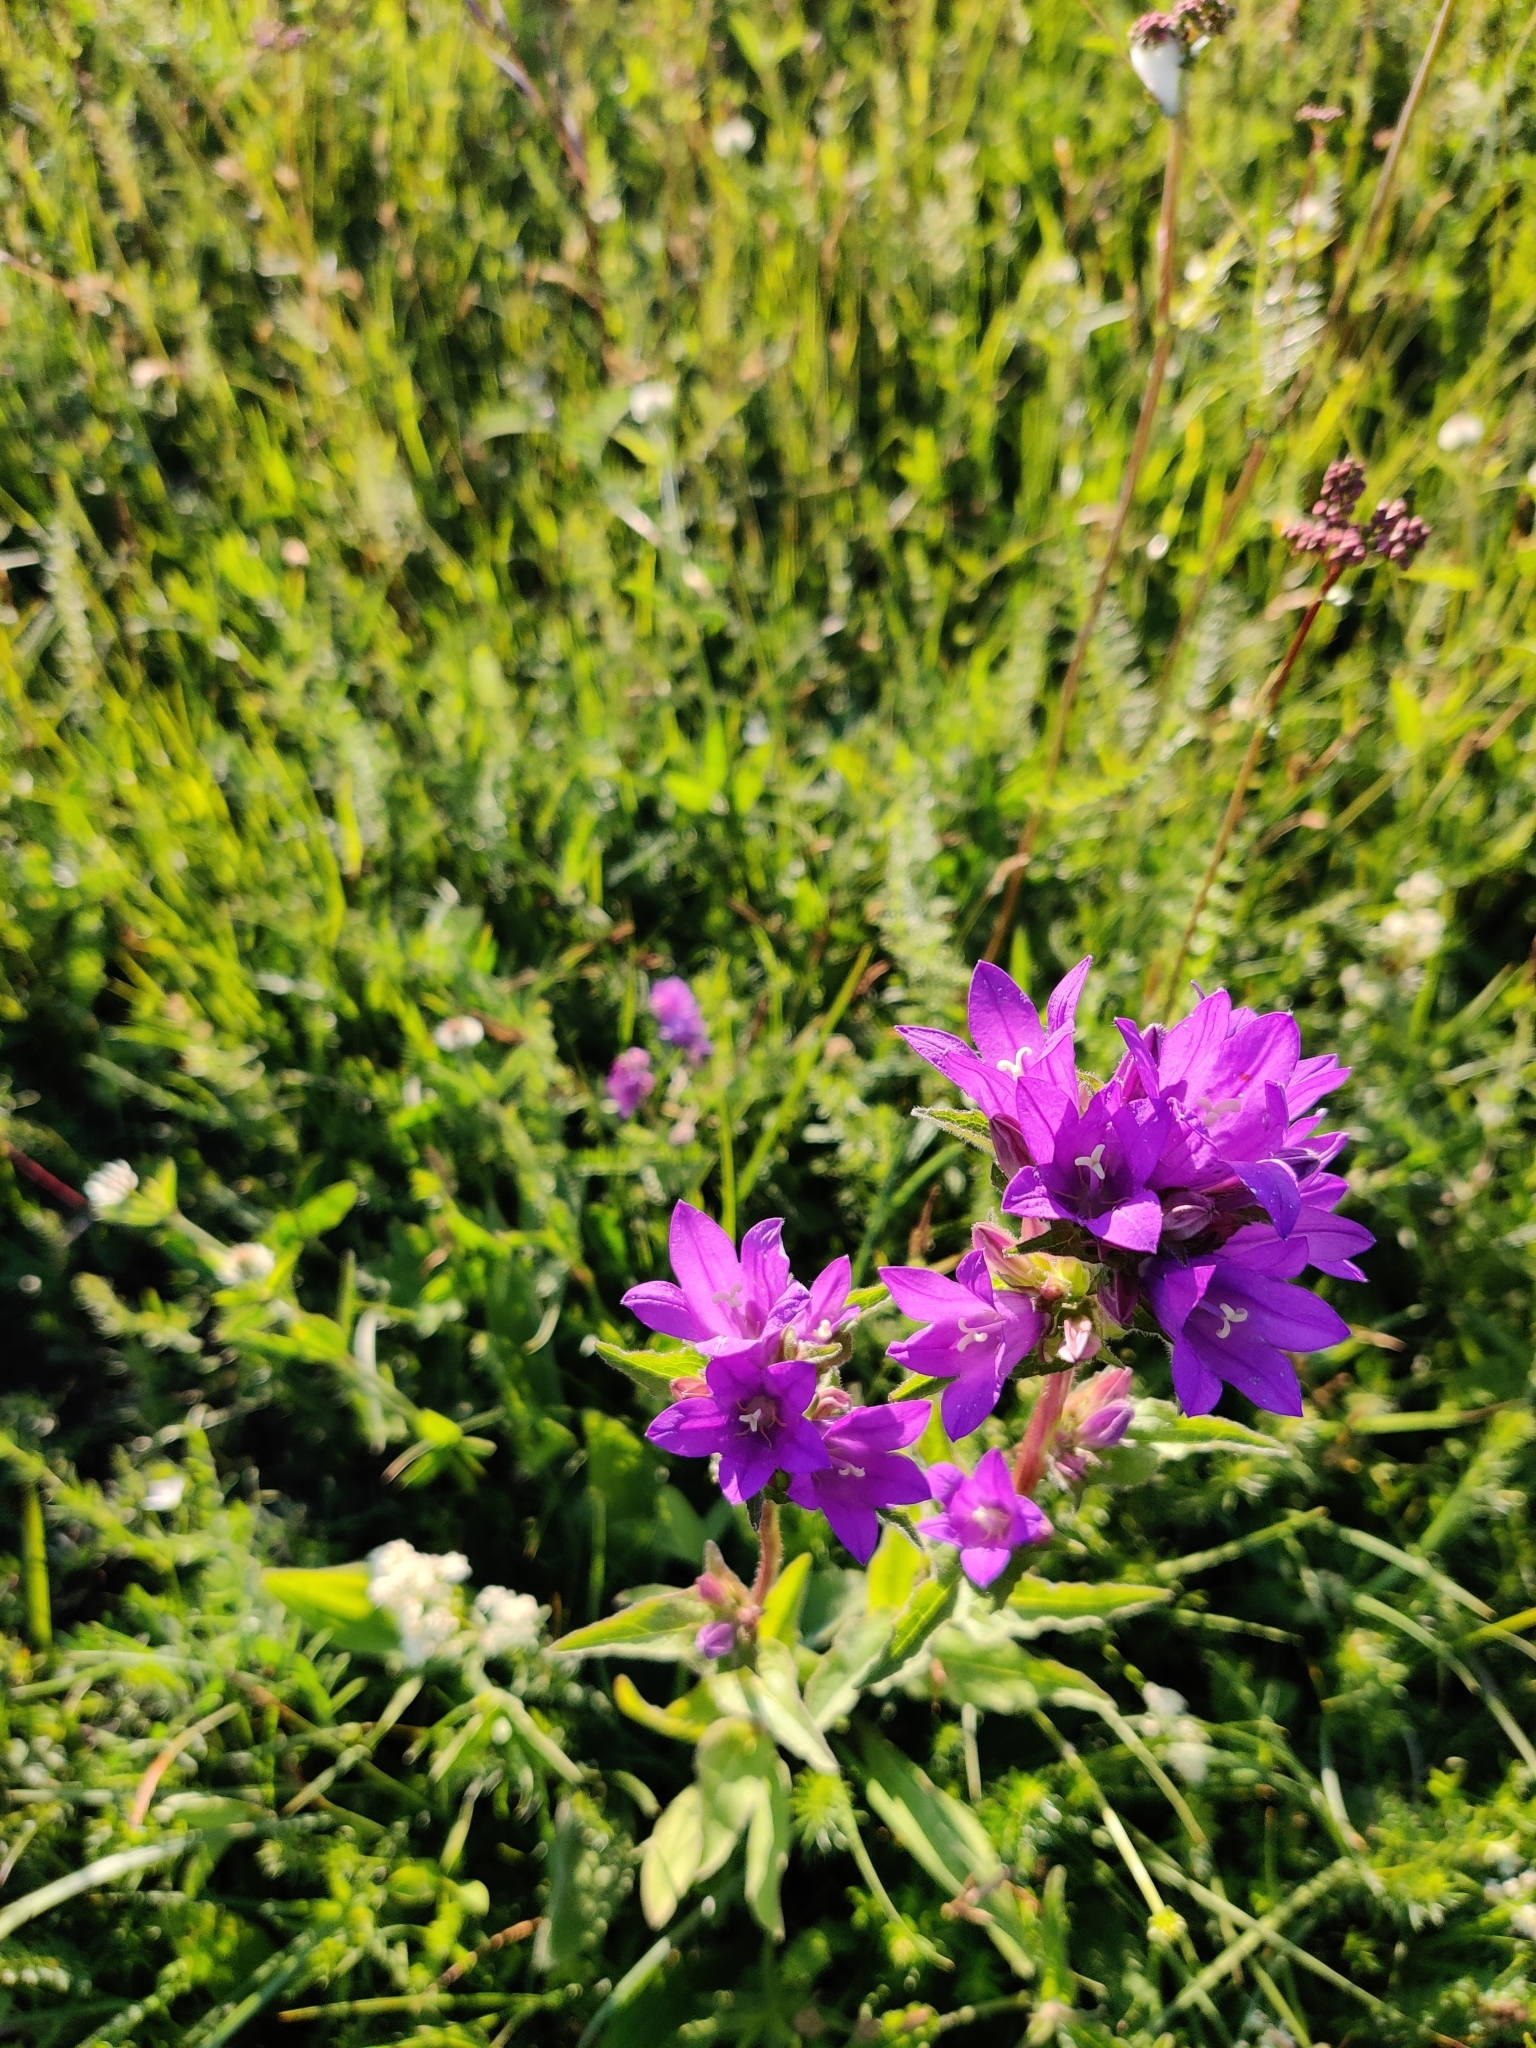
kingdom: Plantae
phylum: Tracheophyta
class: Magnoliopsida
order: Asterales
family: Campanulaceae
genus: Campanula
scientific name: Campanula glomerata
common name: Clustered bellflower
